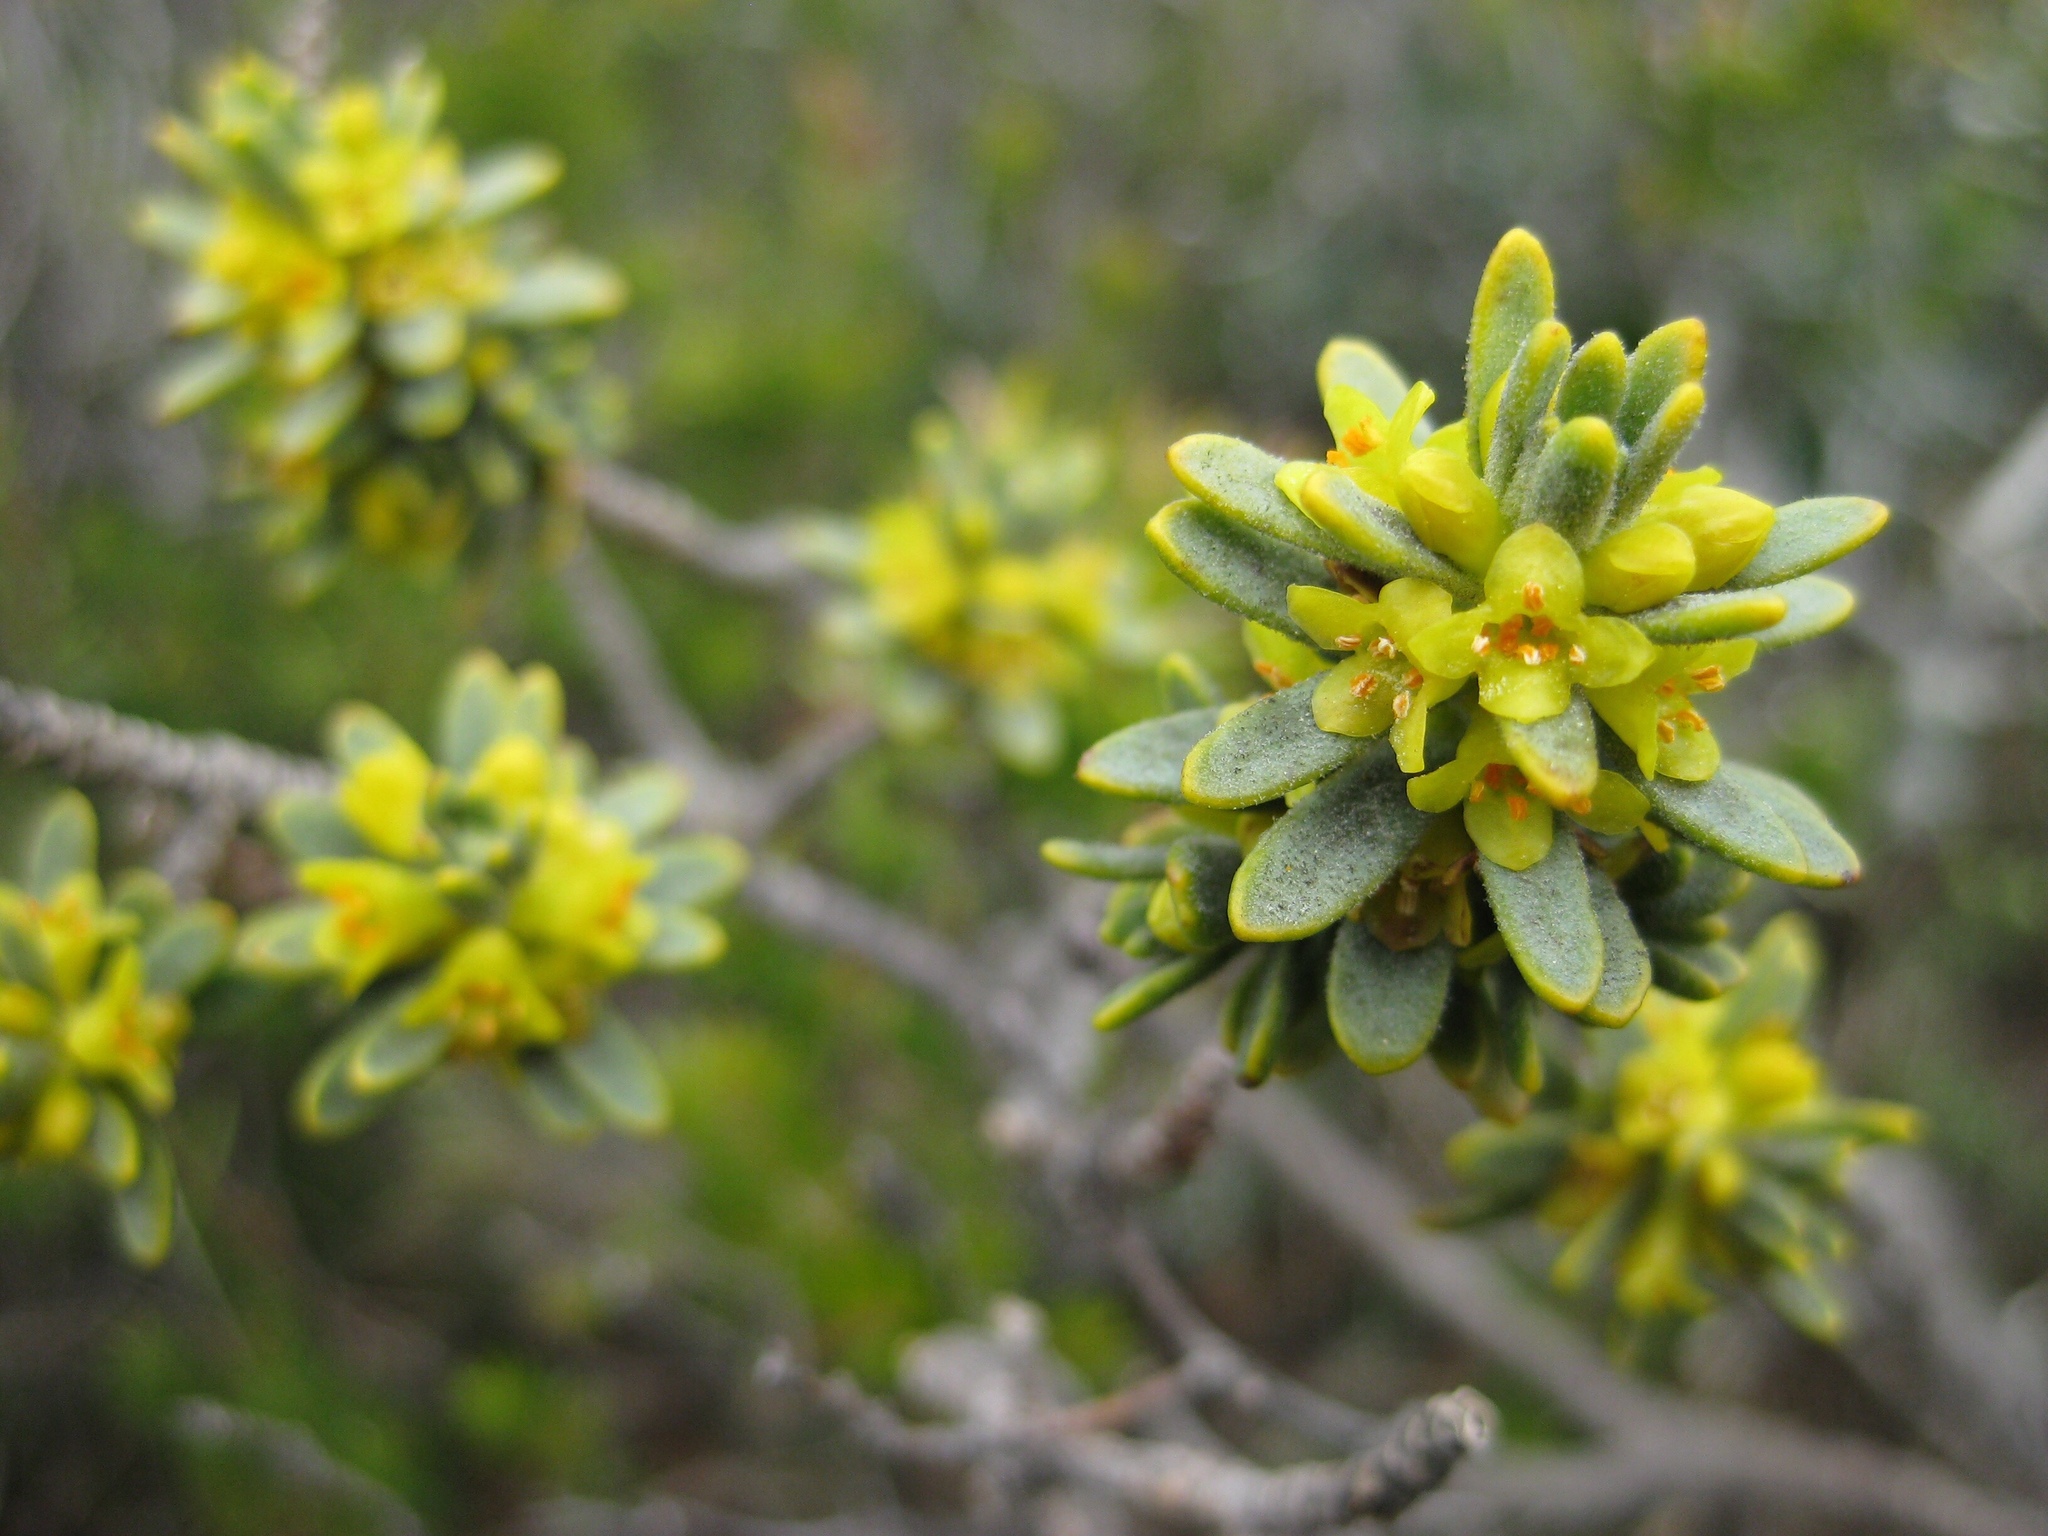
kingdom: Plantae
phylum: Tracheophyta
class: Magnoliopsida
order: Malvales
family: Thymelaeaceae
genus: Thymelaea
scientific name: Thymelaea tinctoria
